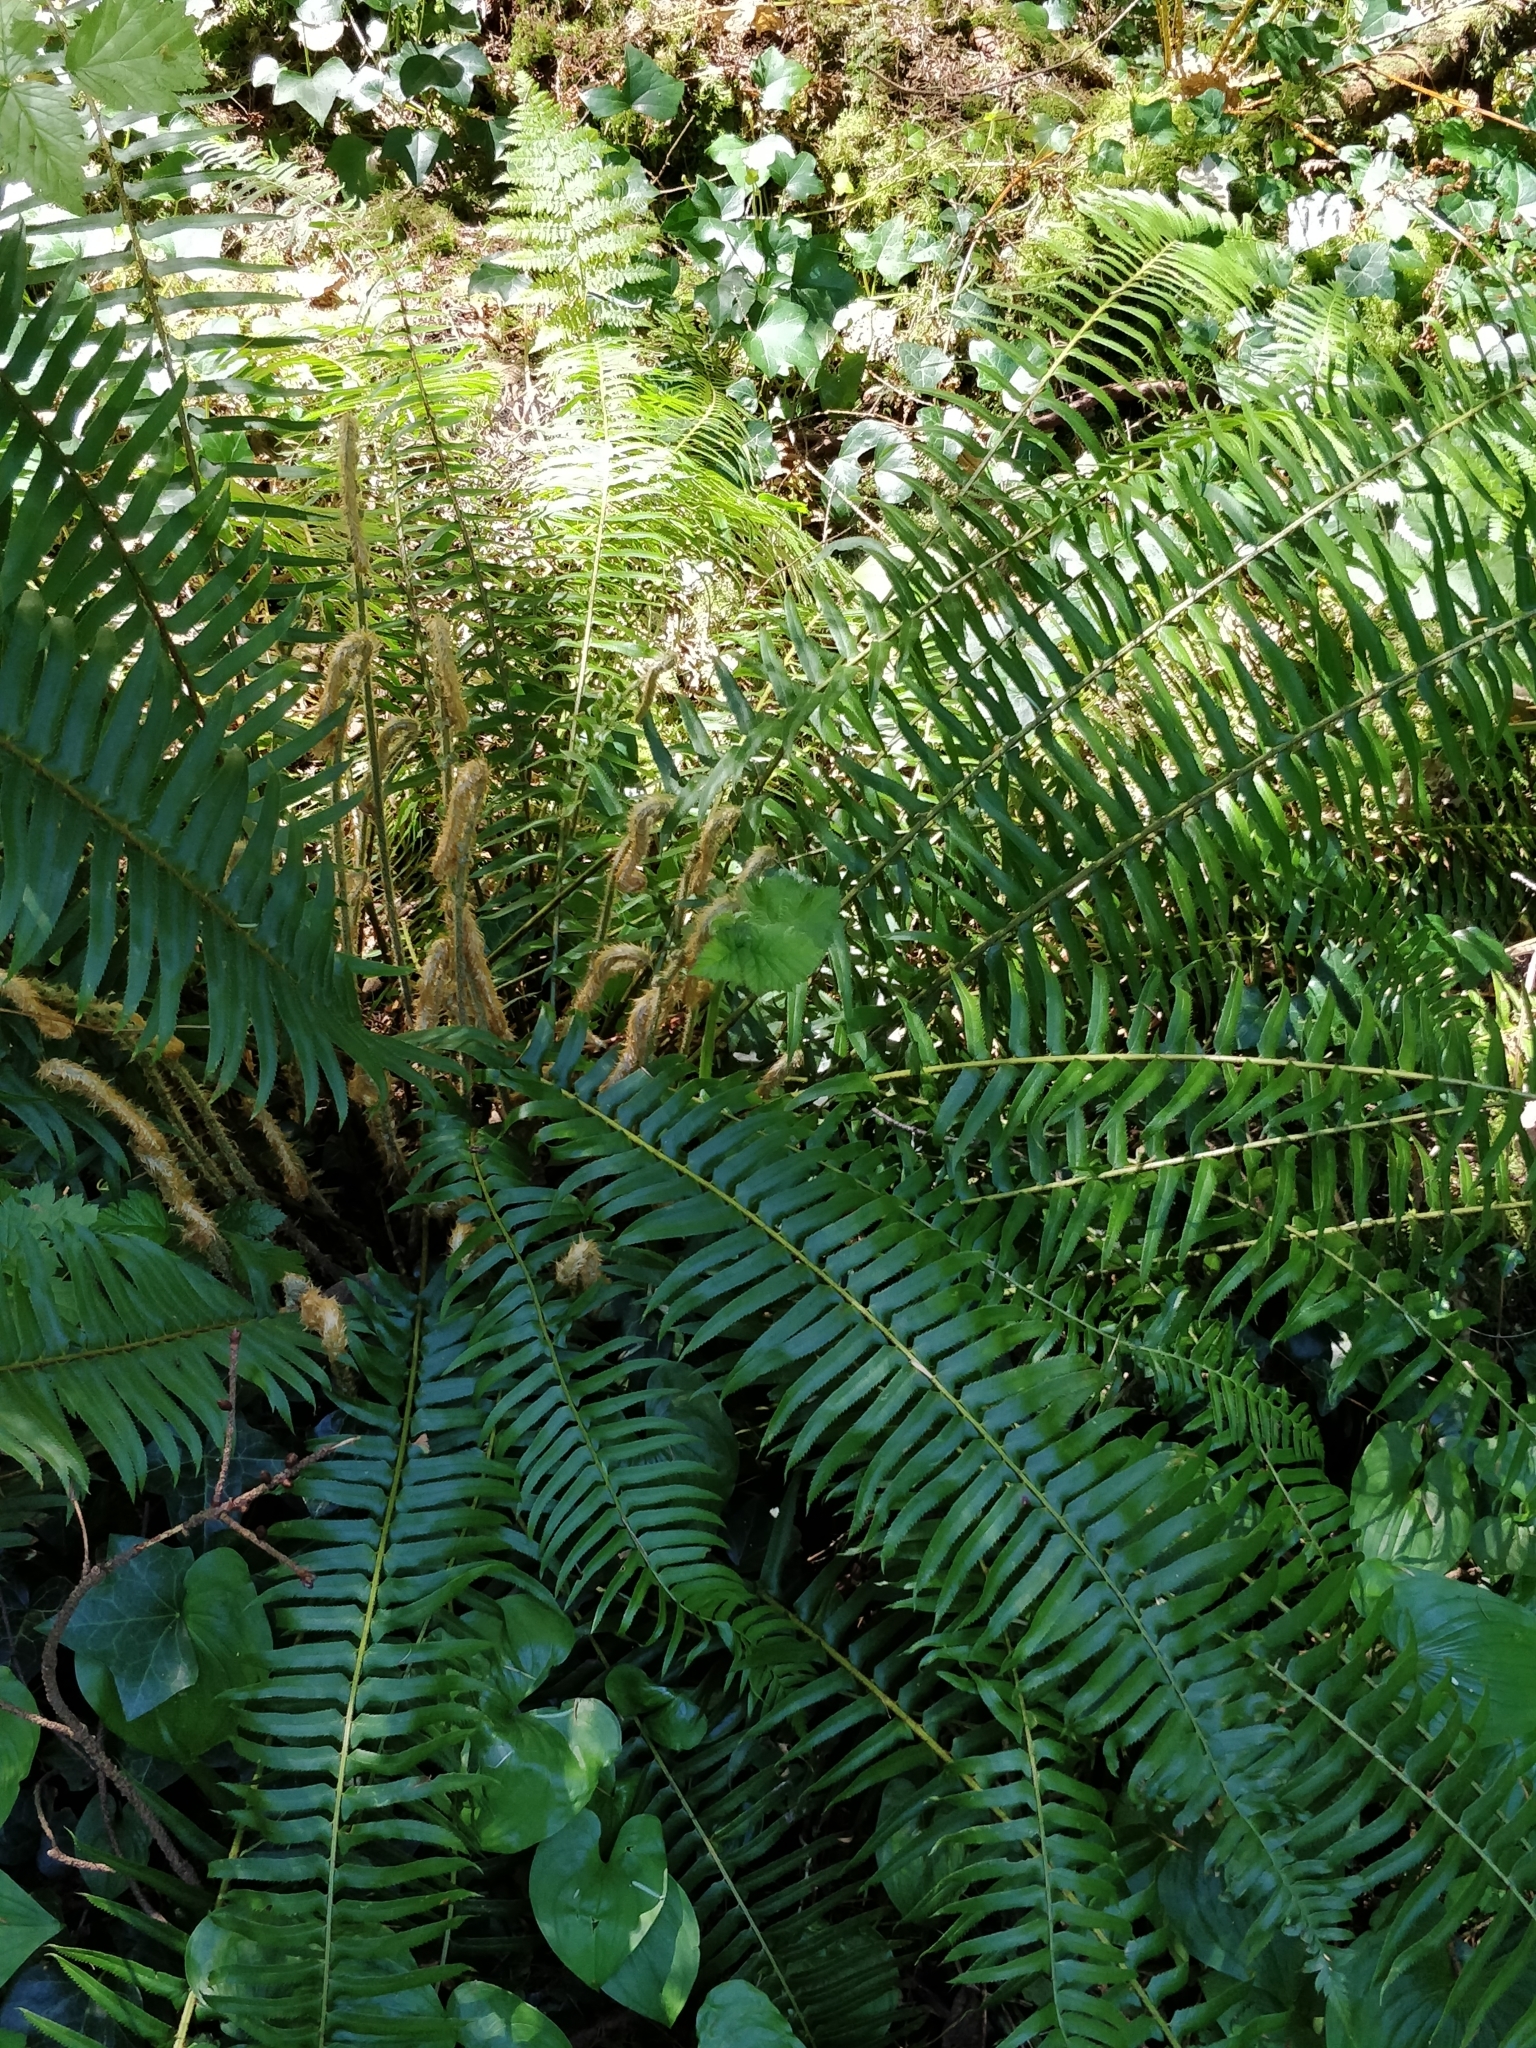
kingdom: Plantae
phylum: Tracheophyta
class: Polypodiopsida
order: Polypodiales
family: Dryopteridaceae
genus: Polystichum
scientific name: Polystichum munitum
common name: Western sword-fern
